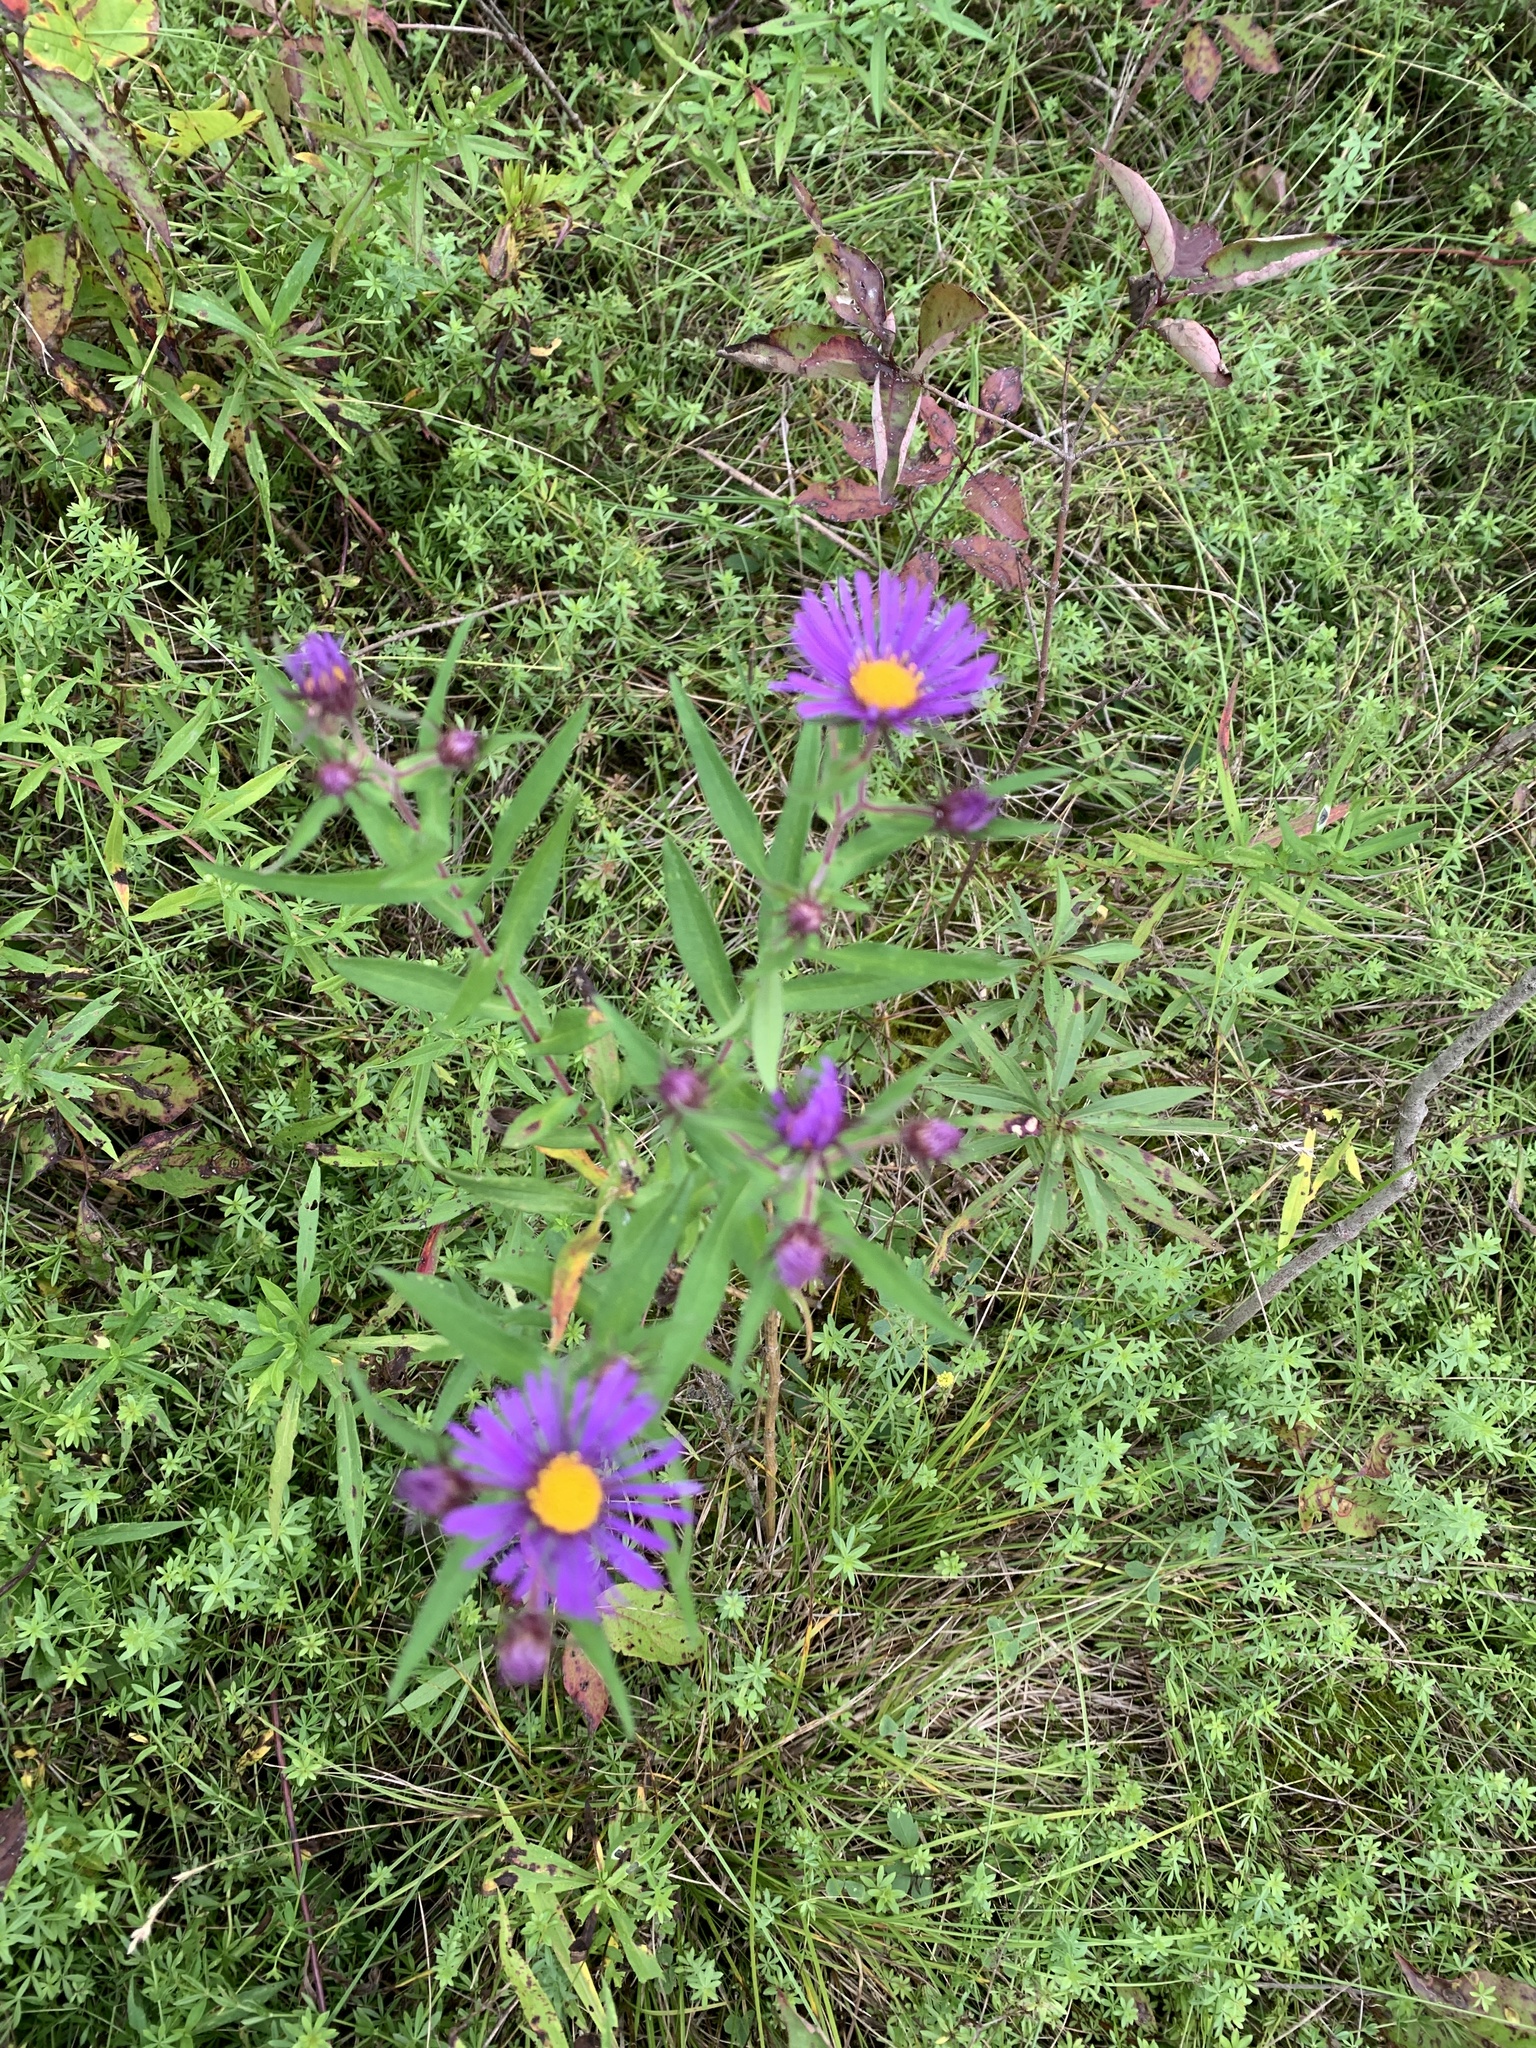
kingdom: Plantae
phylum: Tracheophyta
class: Magnoliopsida
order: Asterales
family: Asteraceae
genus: Symphyotrichum
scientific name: Symphyotrichum novae-angliae
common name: Michaelmas daisy
